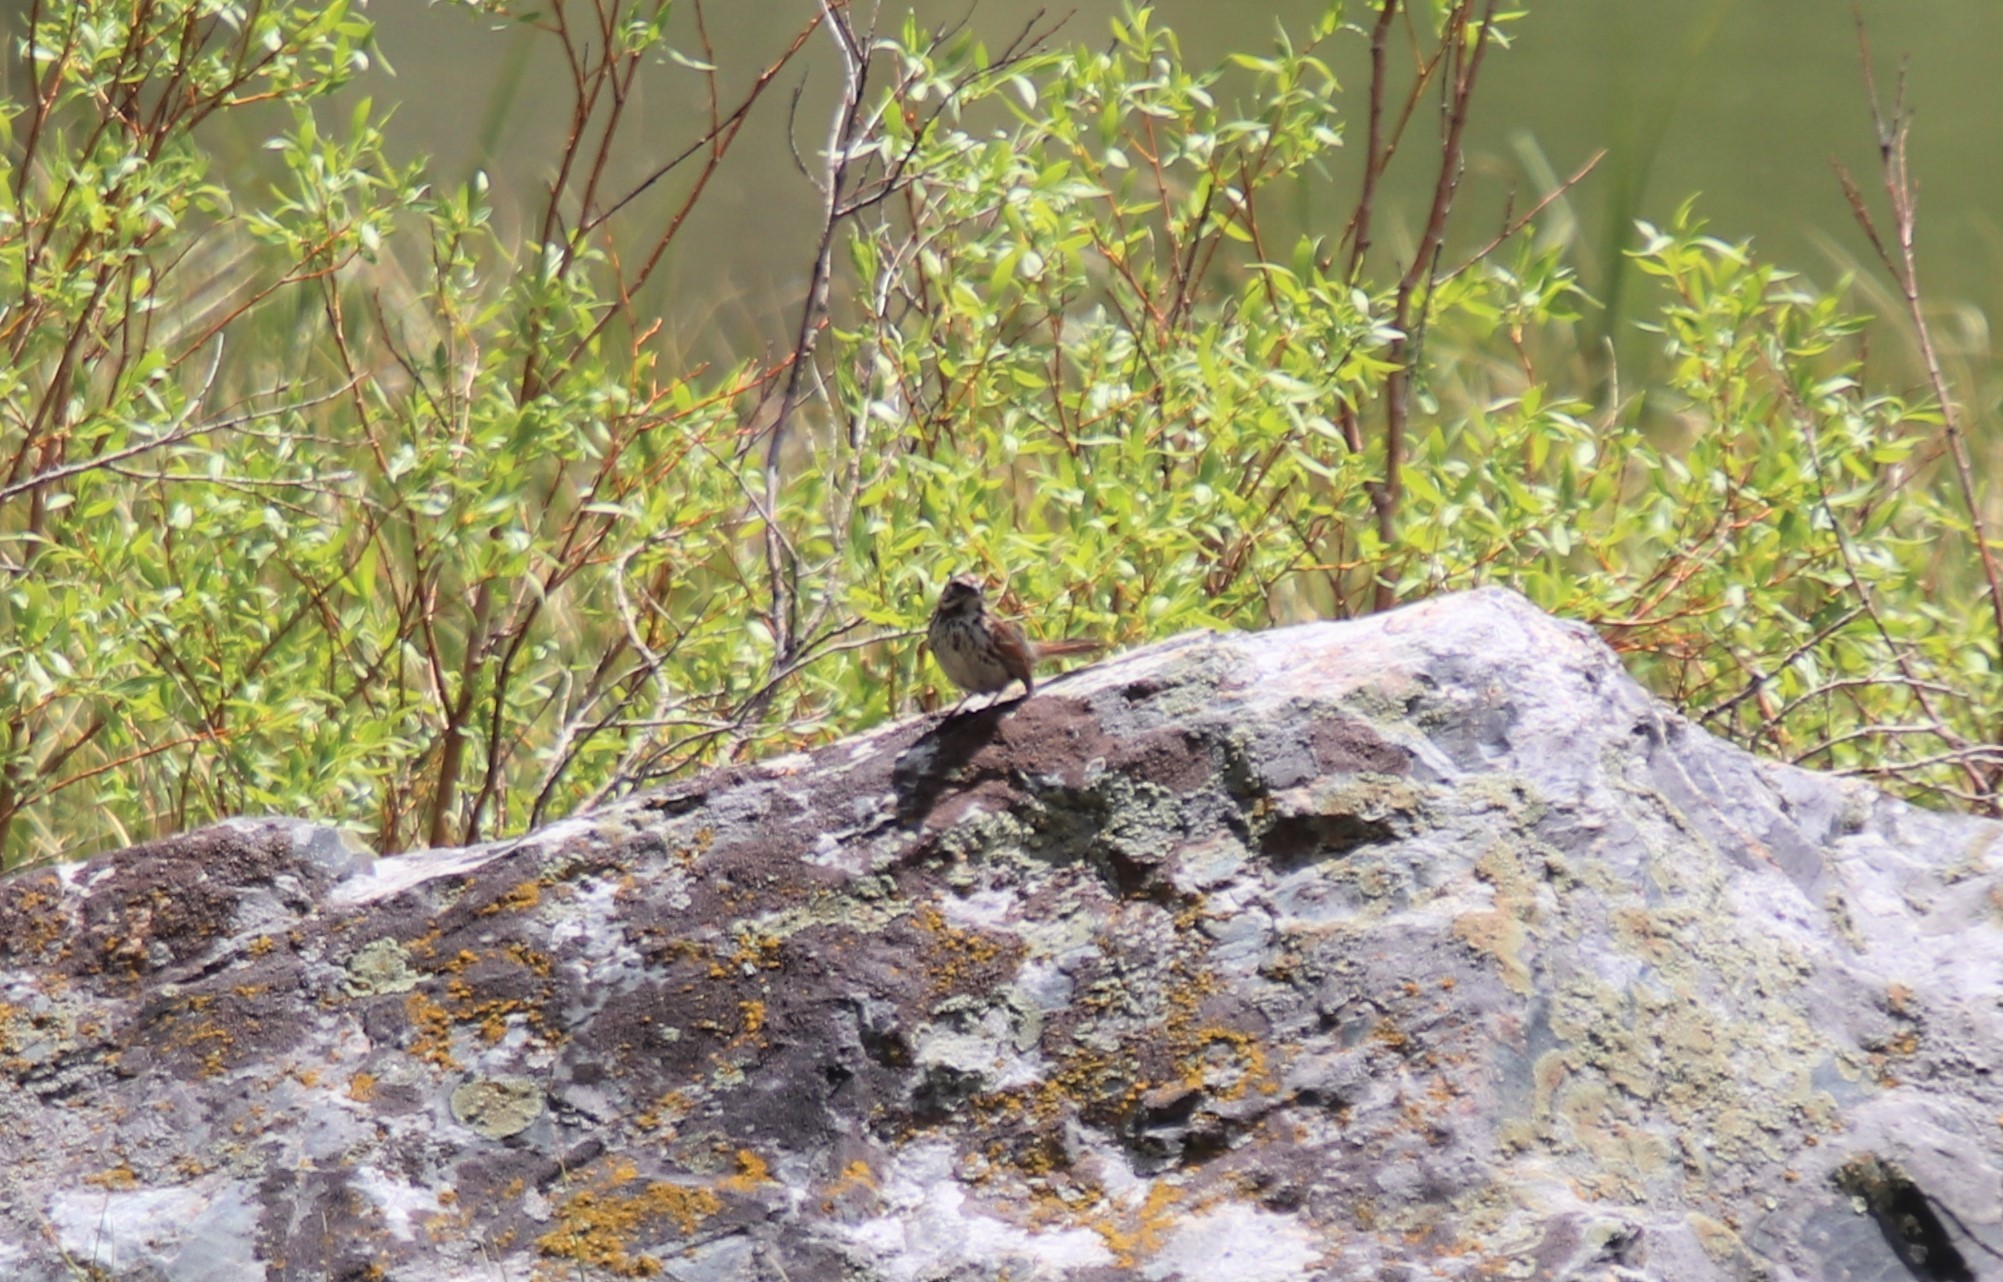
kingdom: Animalia
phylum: Chordata
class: Aves
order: Passeriformes
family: Passerellidae
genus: Melospiza
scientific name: Melospiza melodia
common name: Song sparrow
